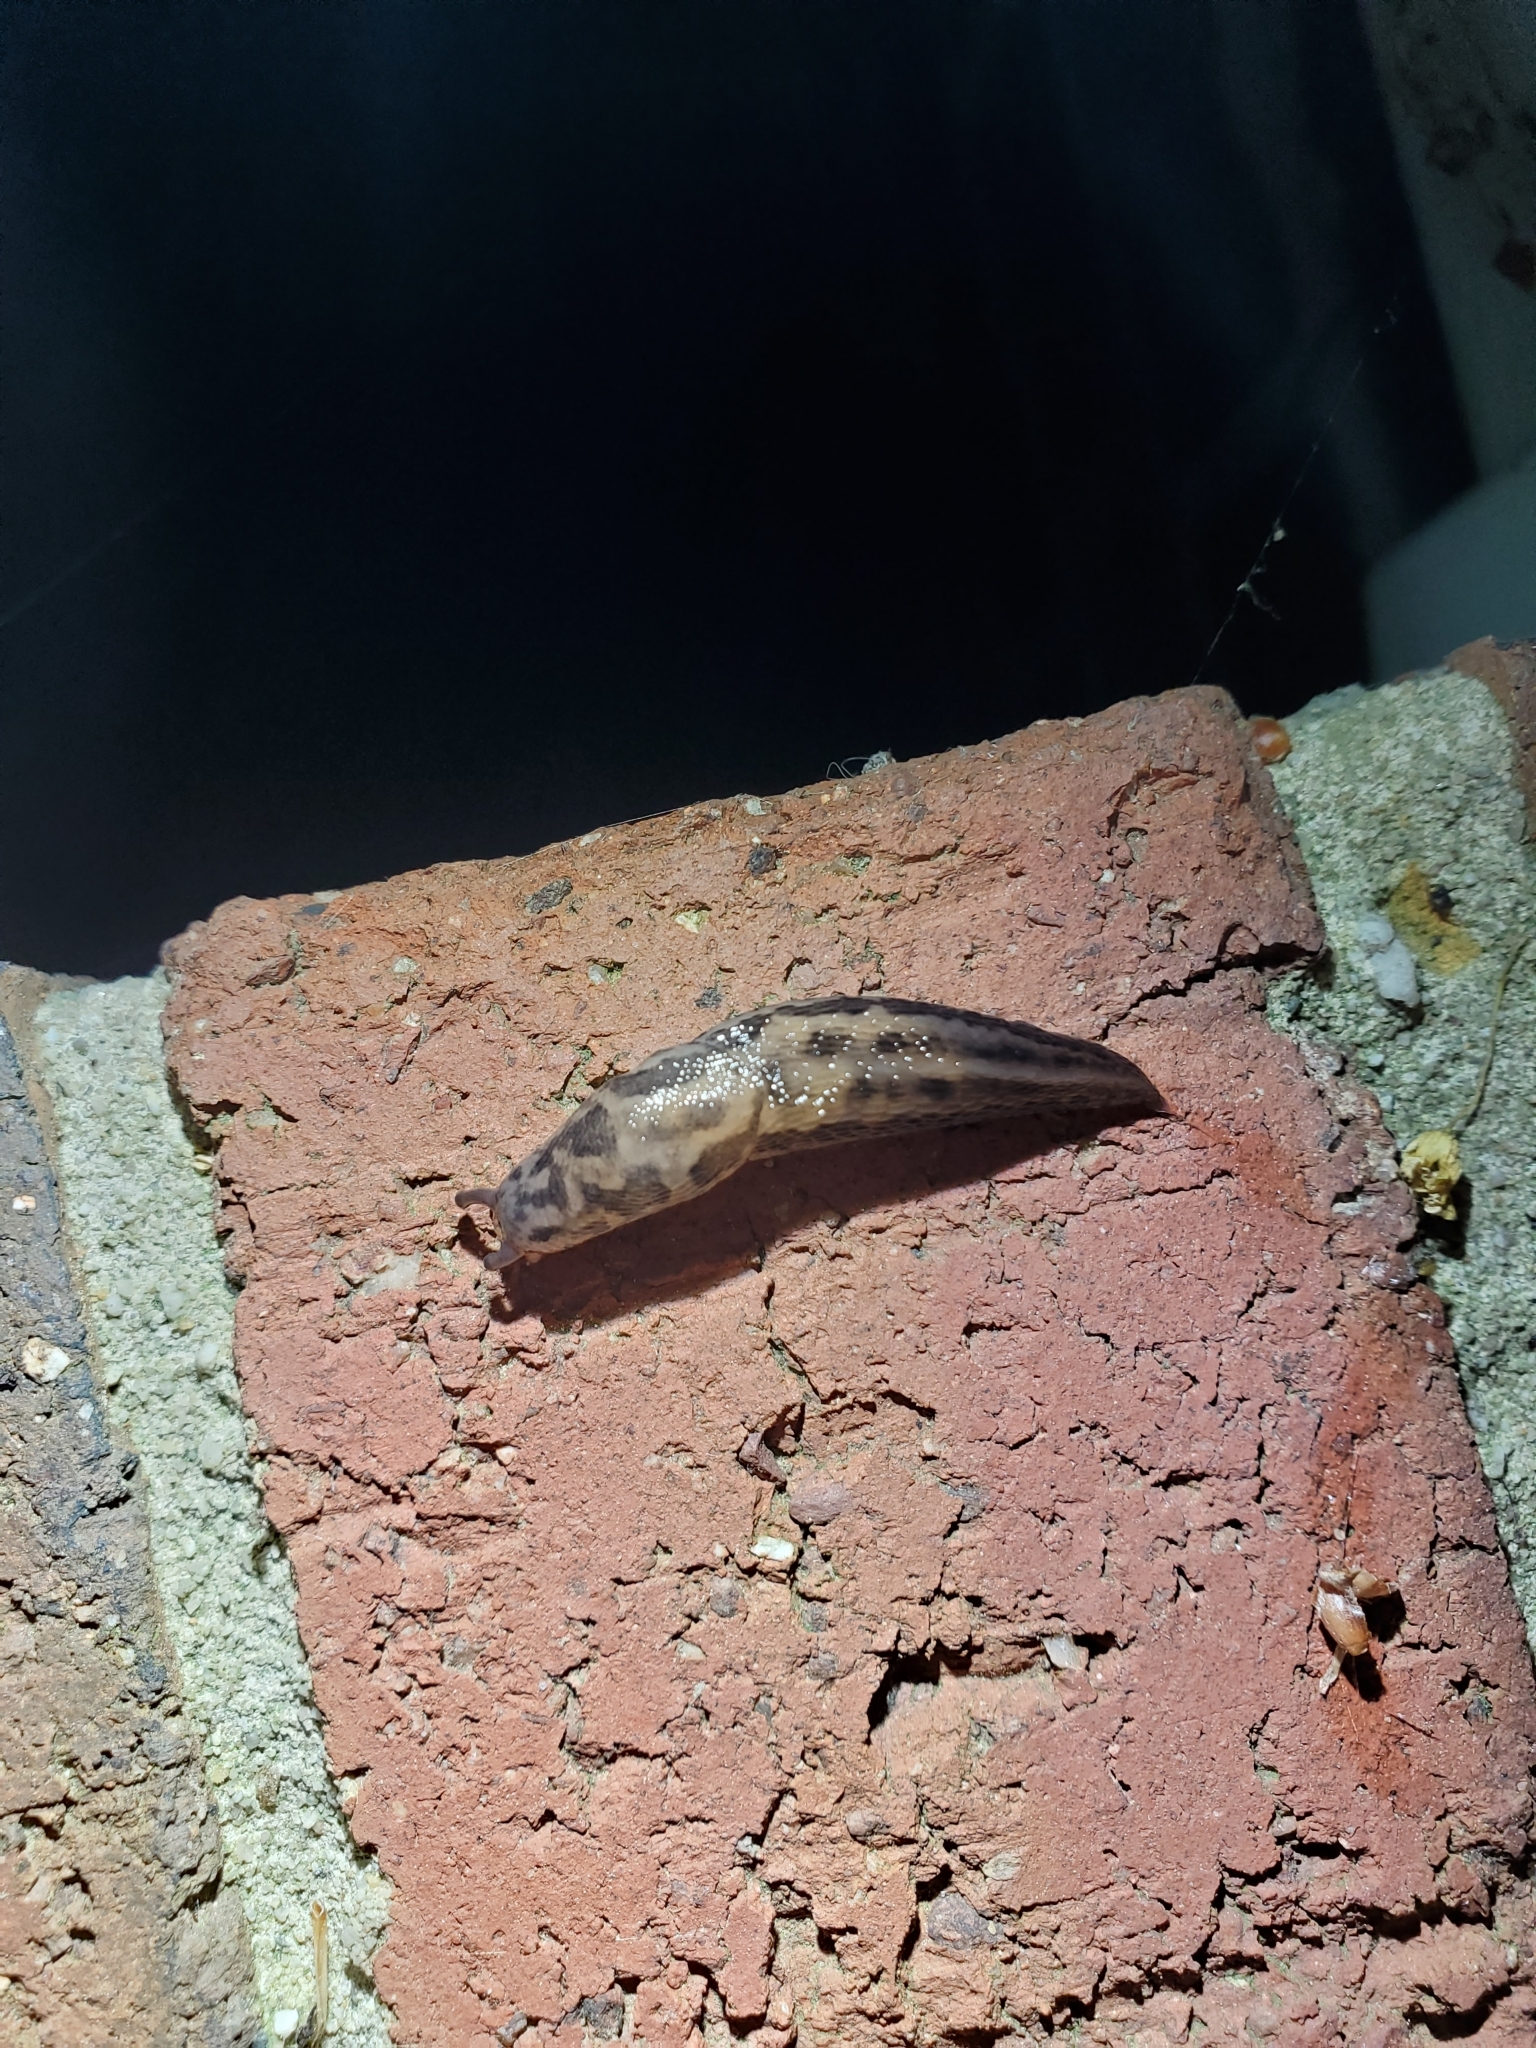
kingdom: Animalia
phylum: Mollusca
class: Gastropoda
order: Stylommatophora
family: Limacidae
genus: Limax
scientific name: Limax maximus
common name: Great grey slug
